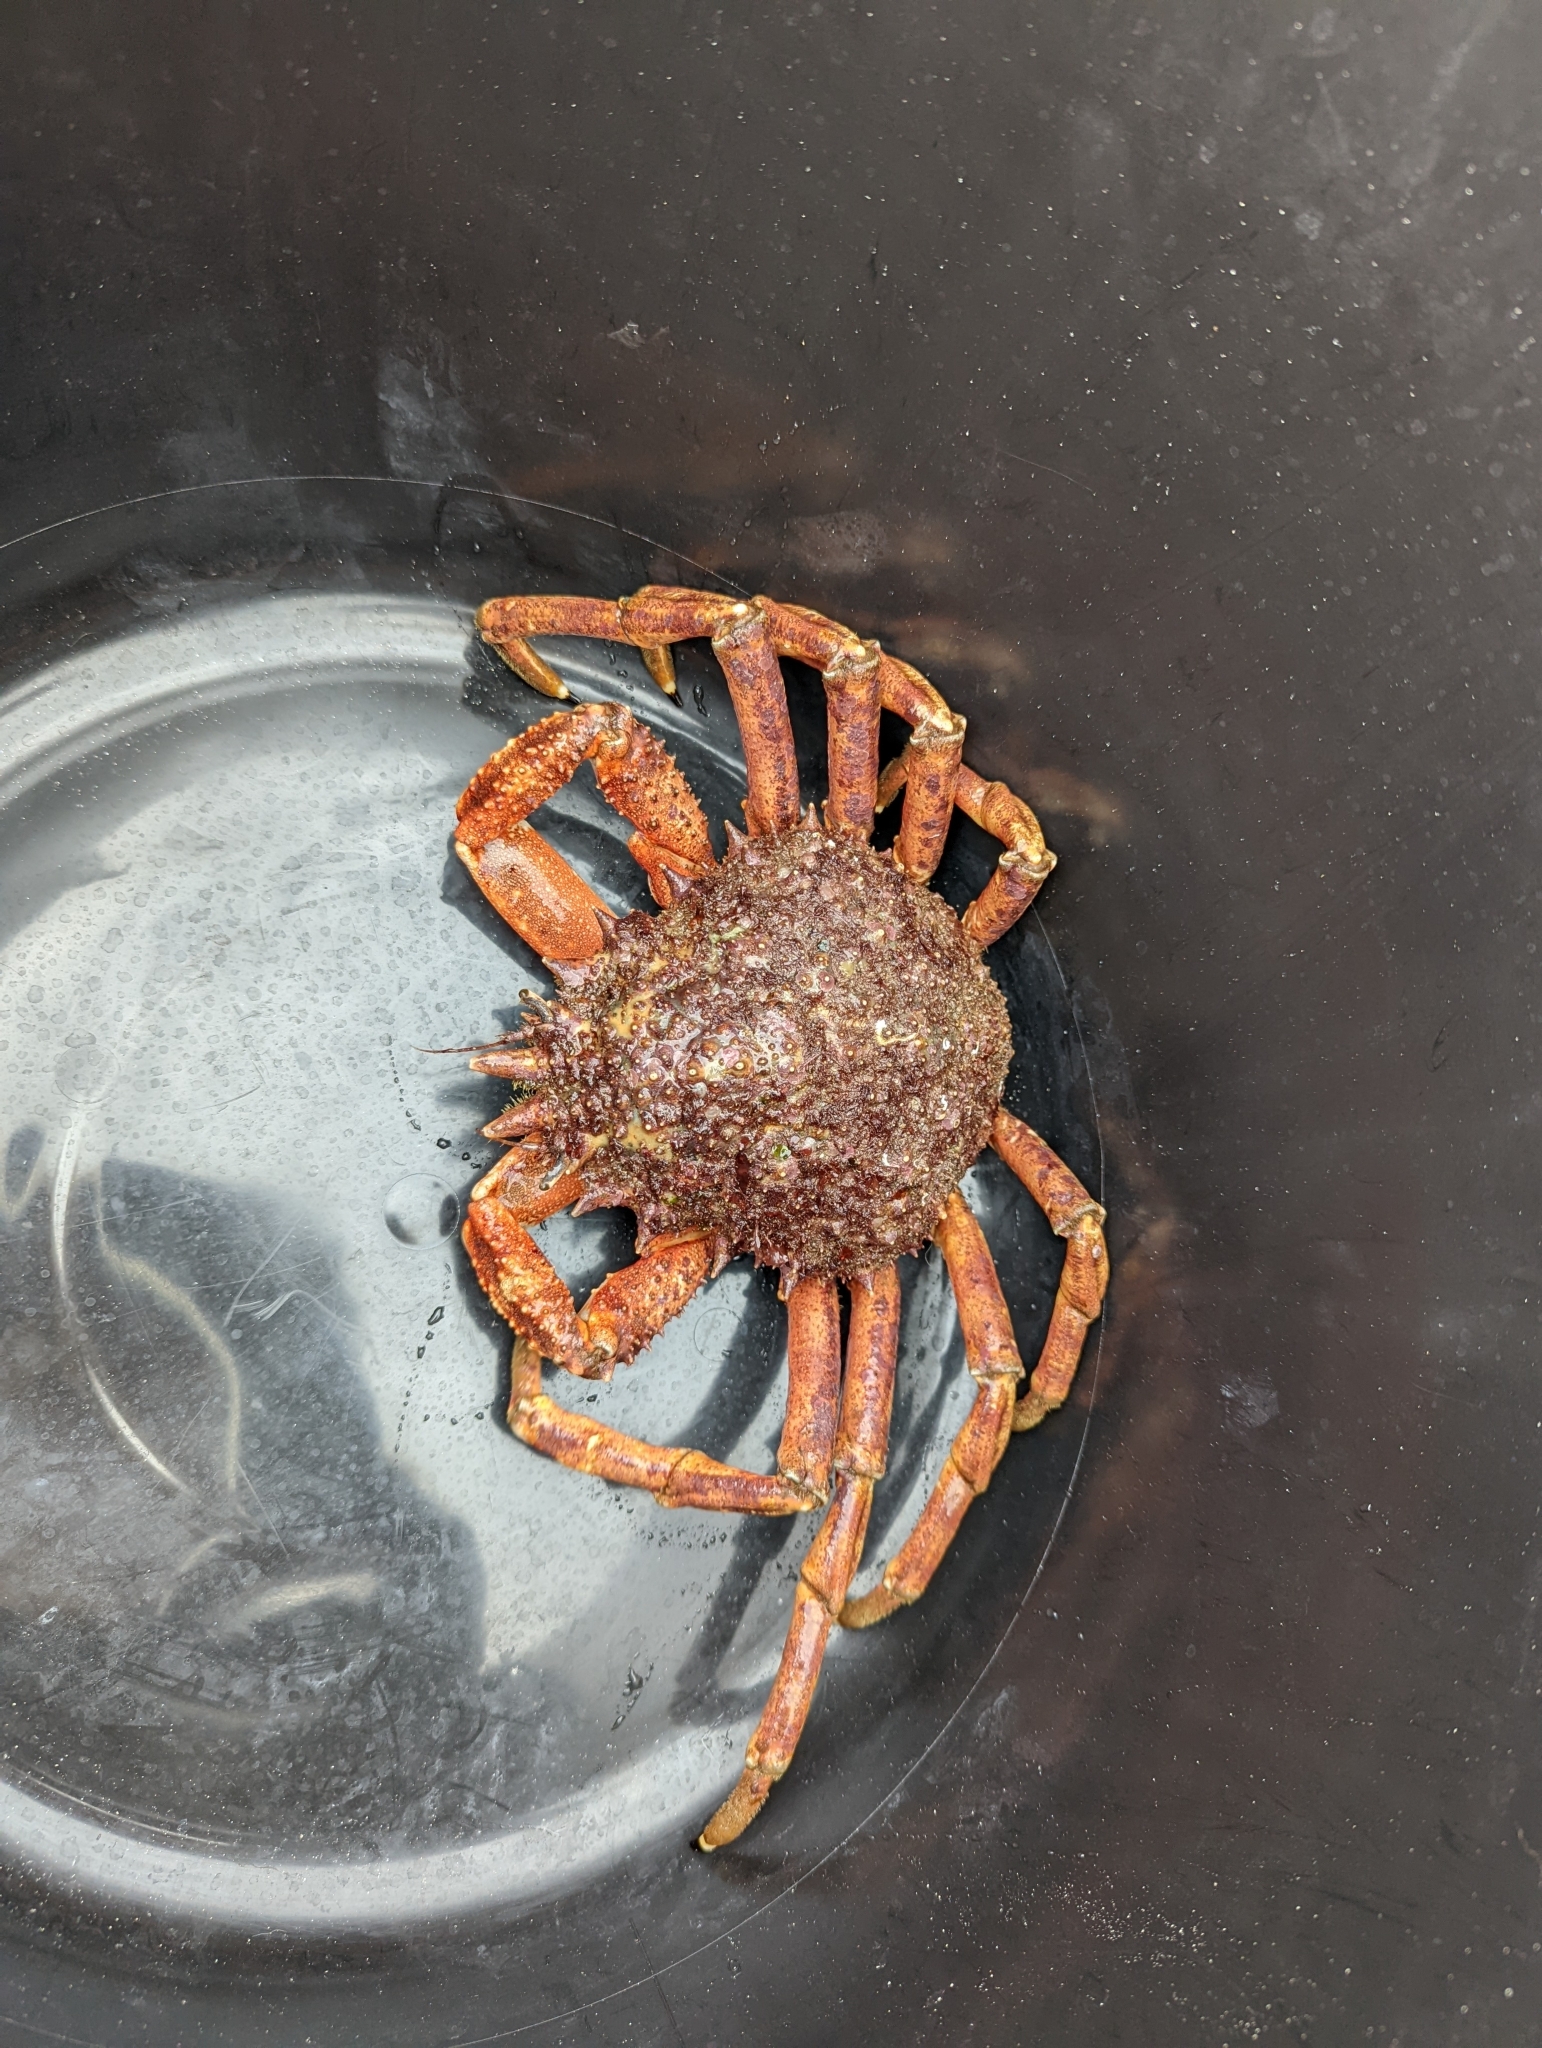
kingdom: Animalia
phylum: Arthropoda
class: Malacostraca
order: Decapoda
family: Majidae
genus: Maja
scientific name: Maja brachydactyla
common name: Common spider crab
